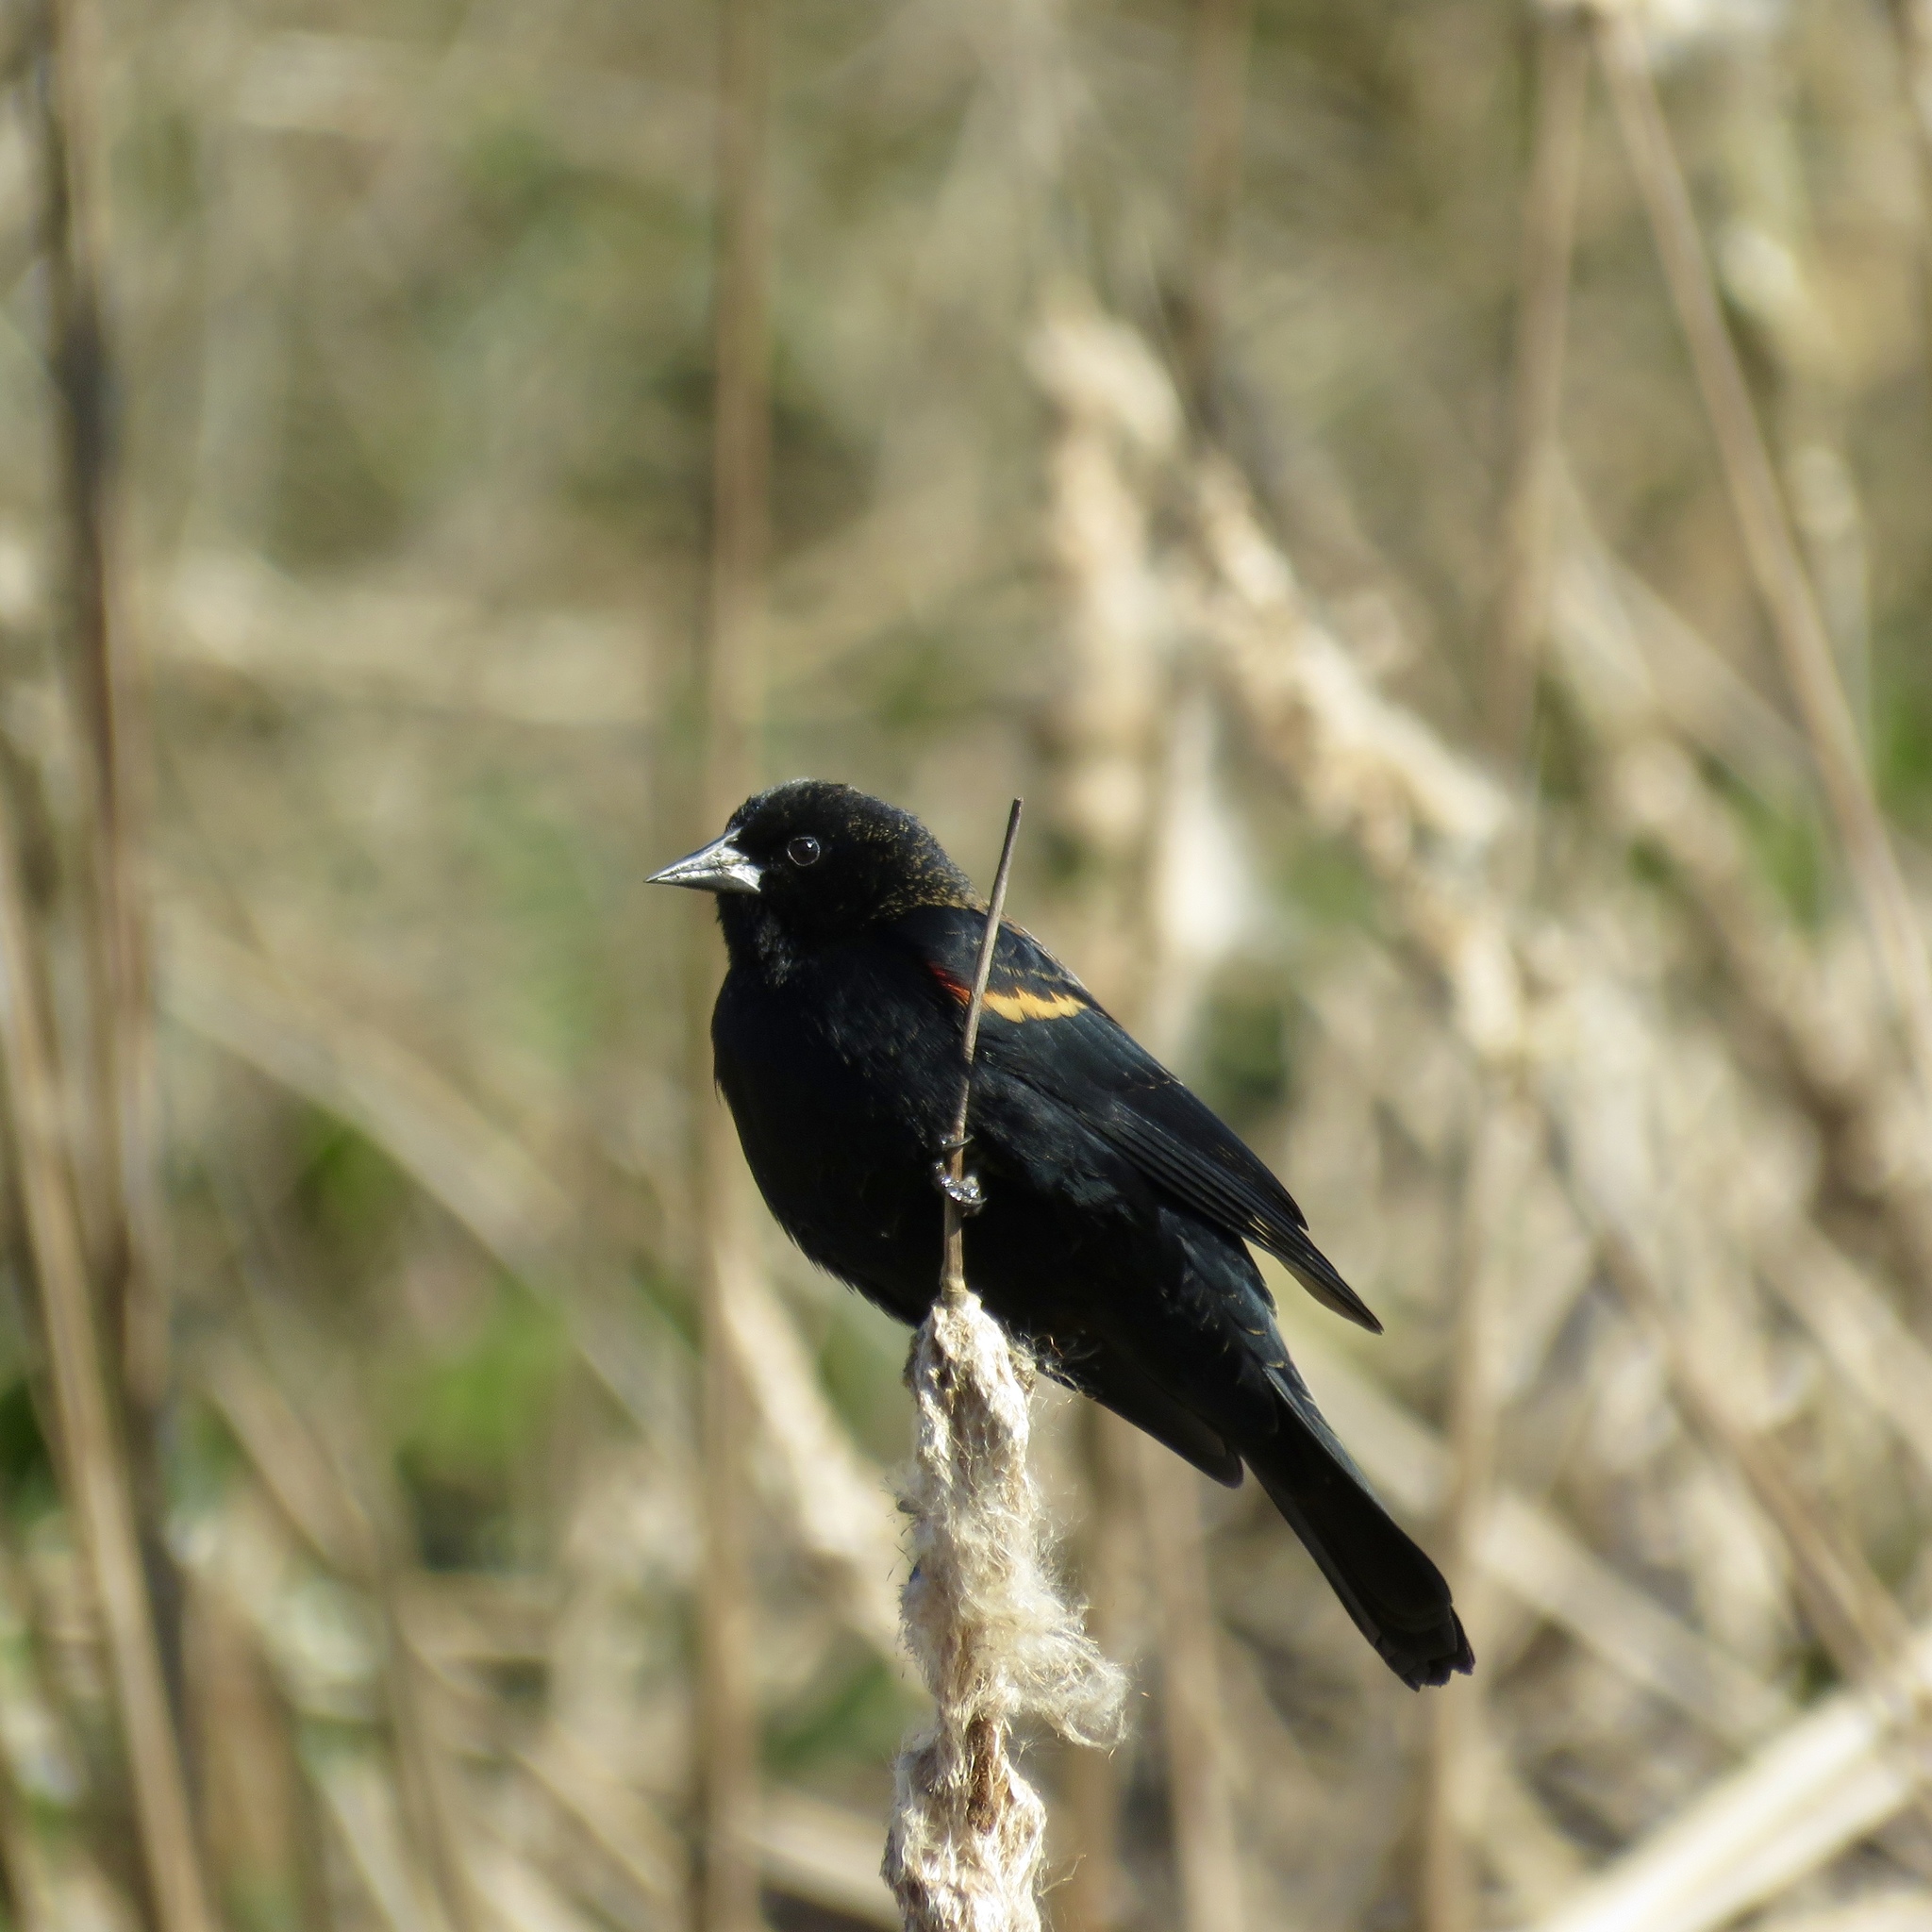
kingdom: Animalia
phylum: Chordata
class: Aves
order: Passeriformes
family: Icteridae
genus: Agelaius
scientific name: Agelaius phoeniceus
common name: Red-winged blackbird
